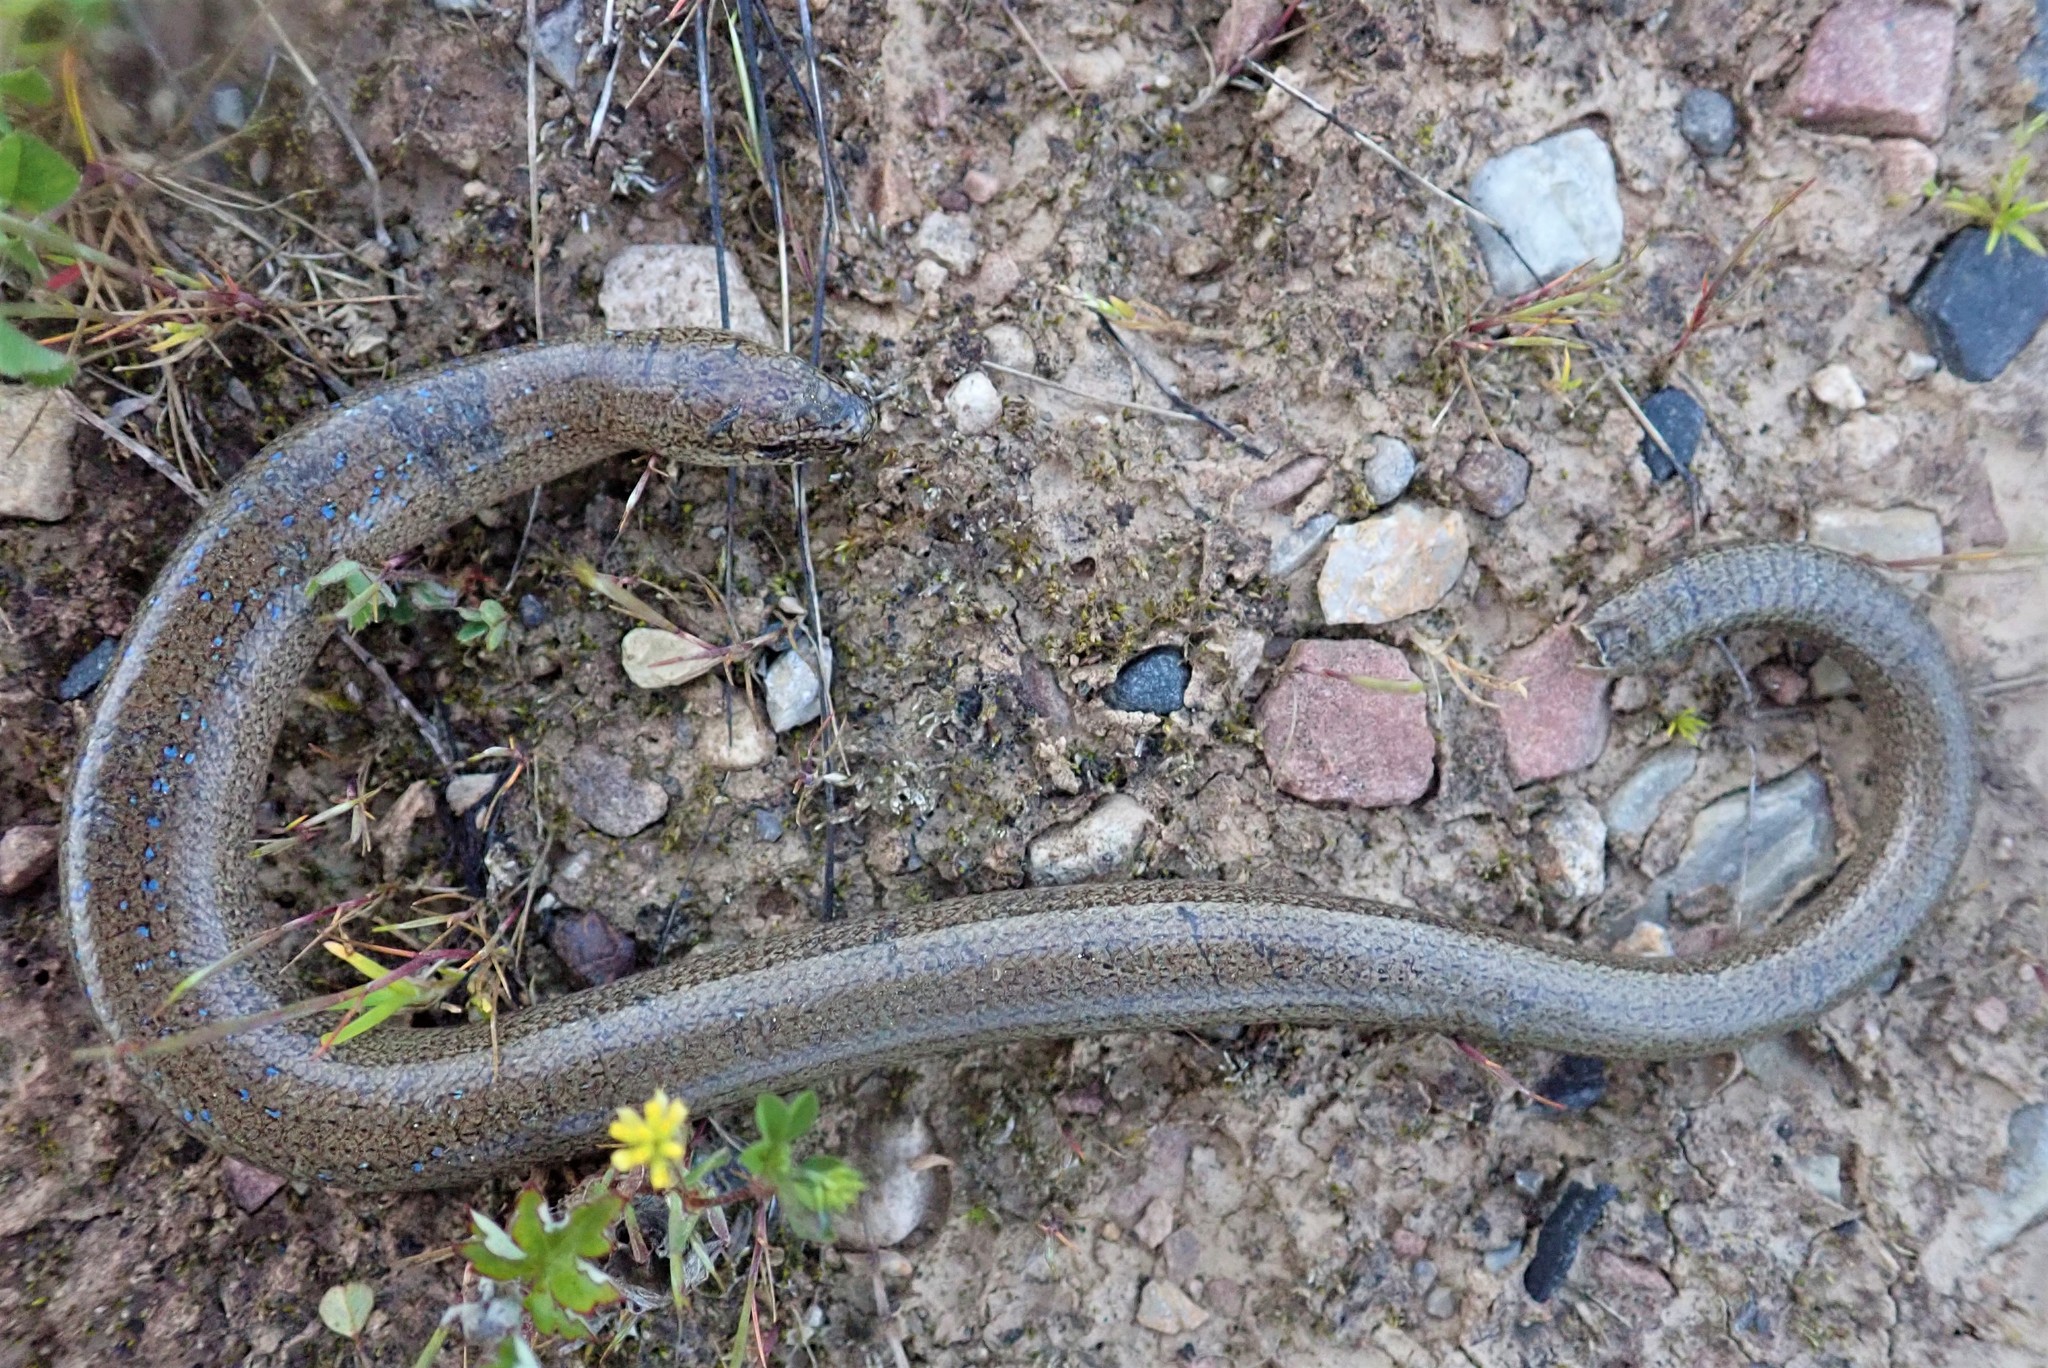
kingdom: Animalia
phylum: Chordata
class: Squamata
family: Anguidae
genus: Anguis
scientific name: Anguis fragilis
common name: Slow worm
